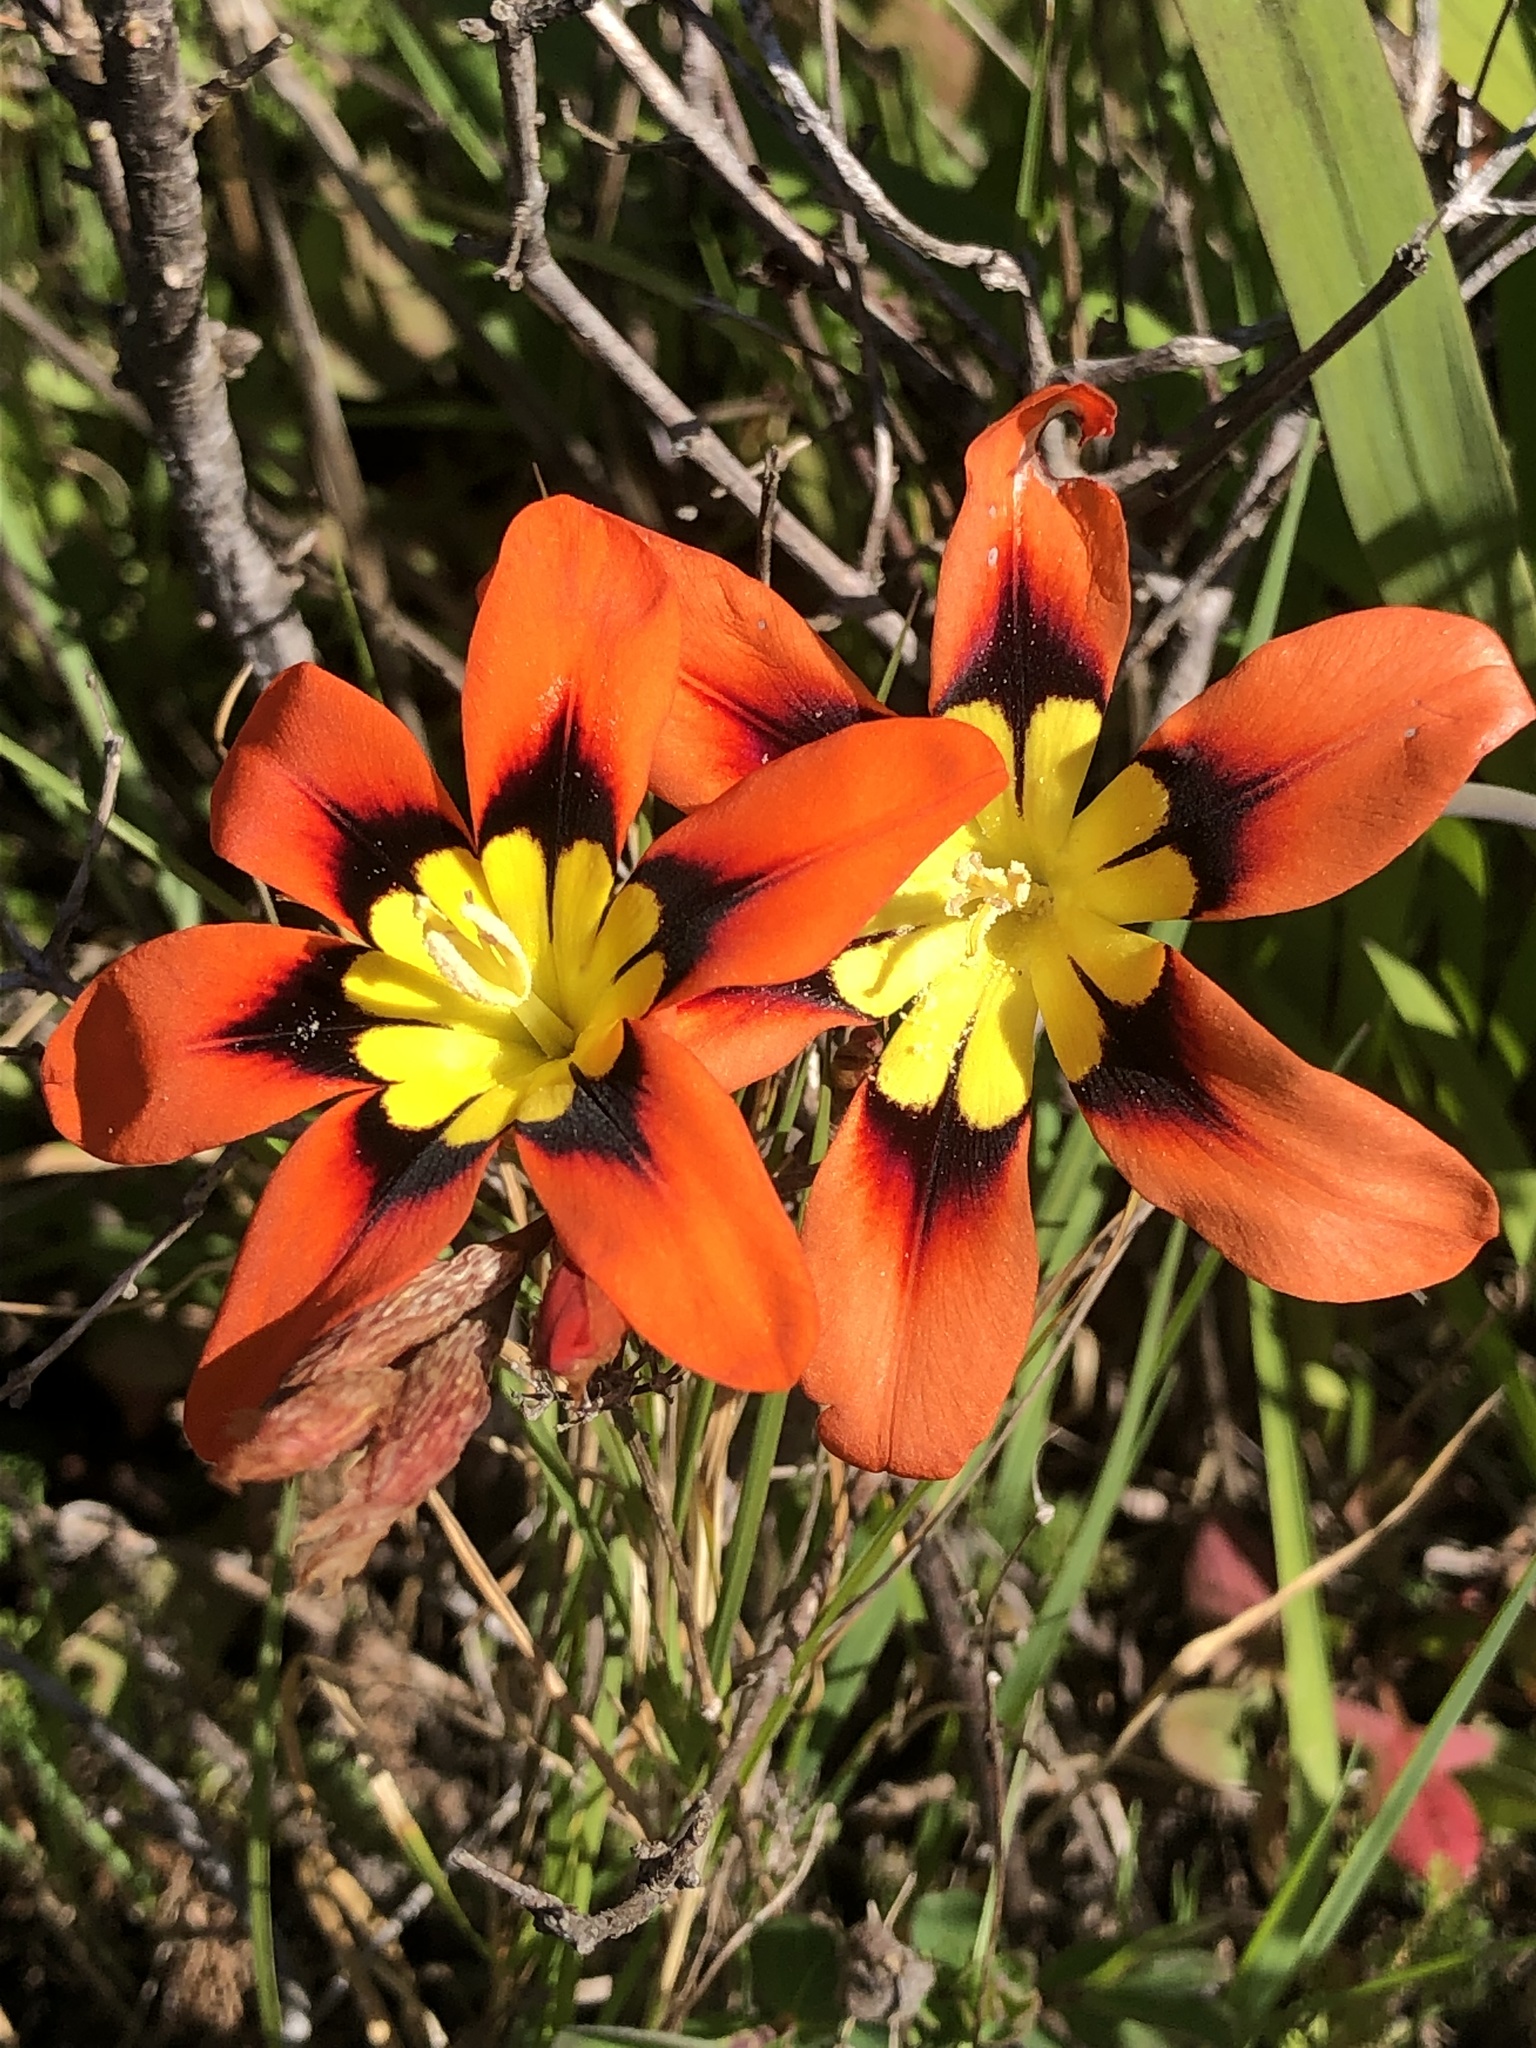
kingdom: Plantae
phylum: Tracheophyta
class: Liliopsida
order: Asparagales
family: Iridaceae
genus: Sparaxis
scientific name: Sparaxis tricolor
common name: Wandflower
